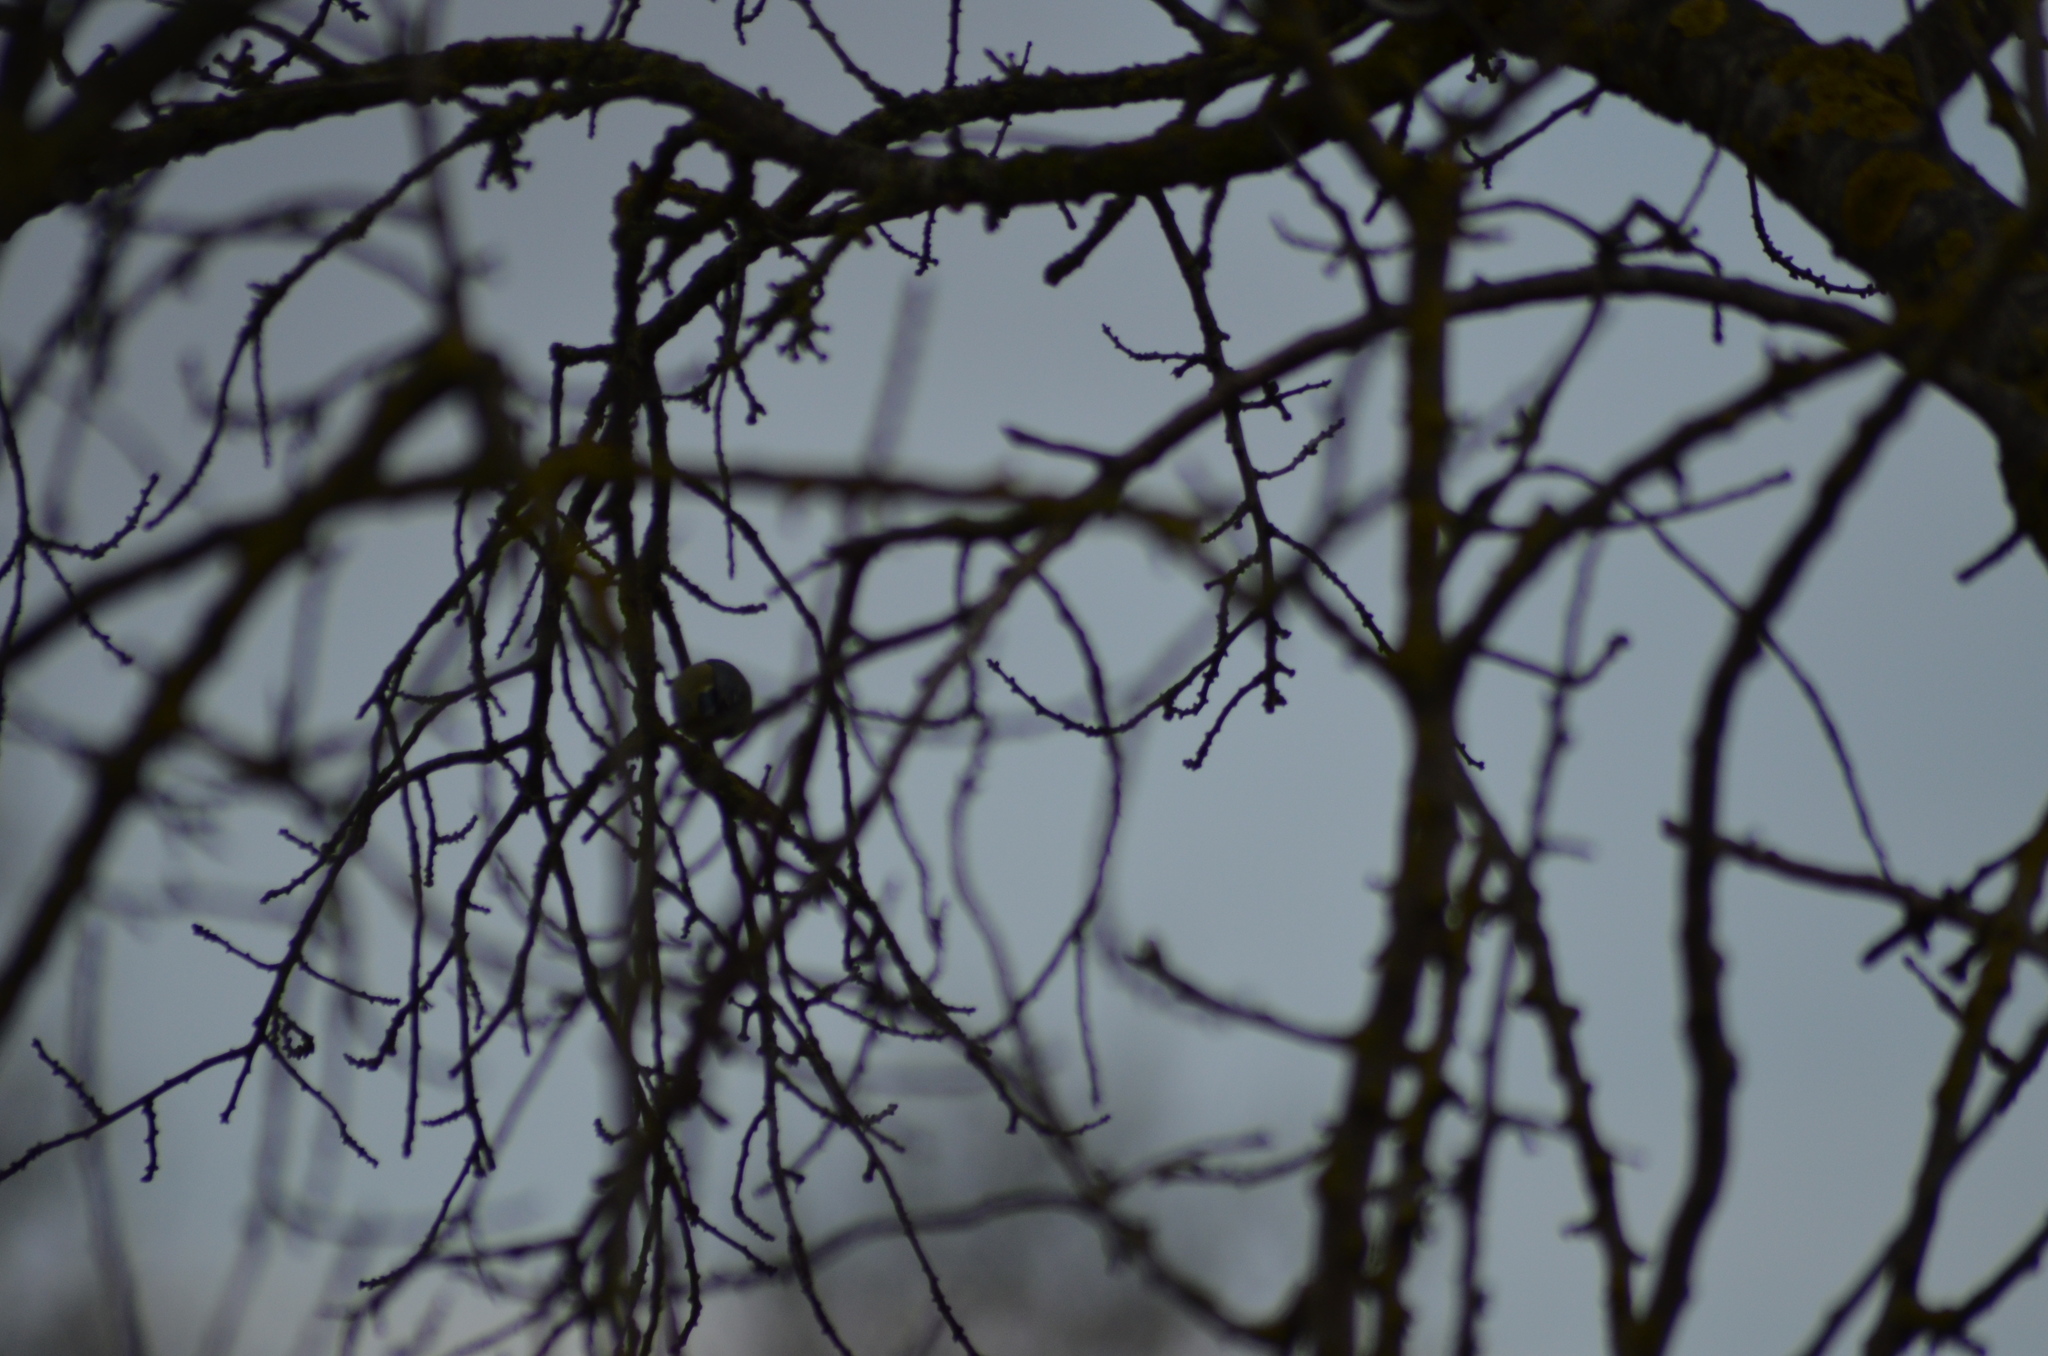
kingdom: Animalia
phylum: Chordata
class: Aves
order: Passeriformes
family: Paridae
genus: Cyanistes
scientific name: Cyanistes caeruleus
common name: Eurasian blue tit
